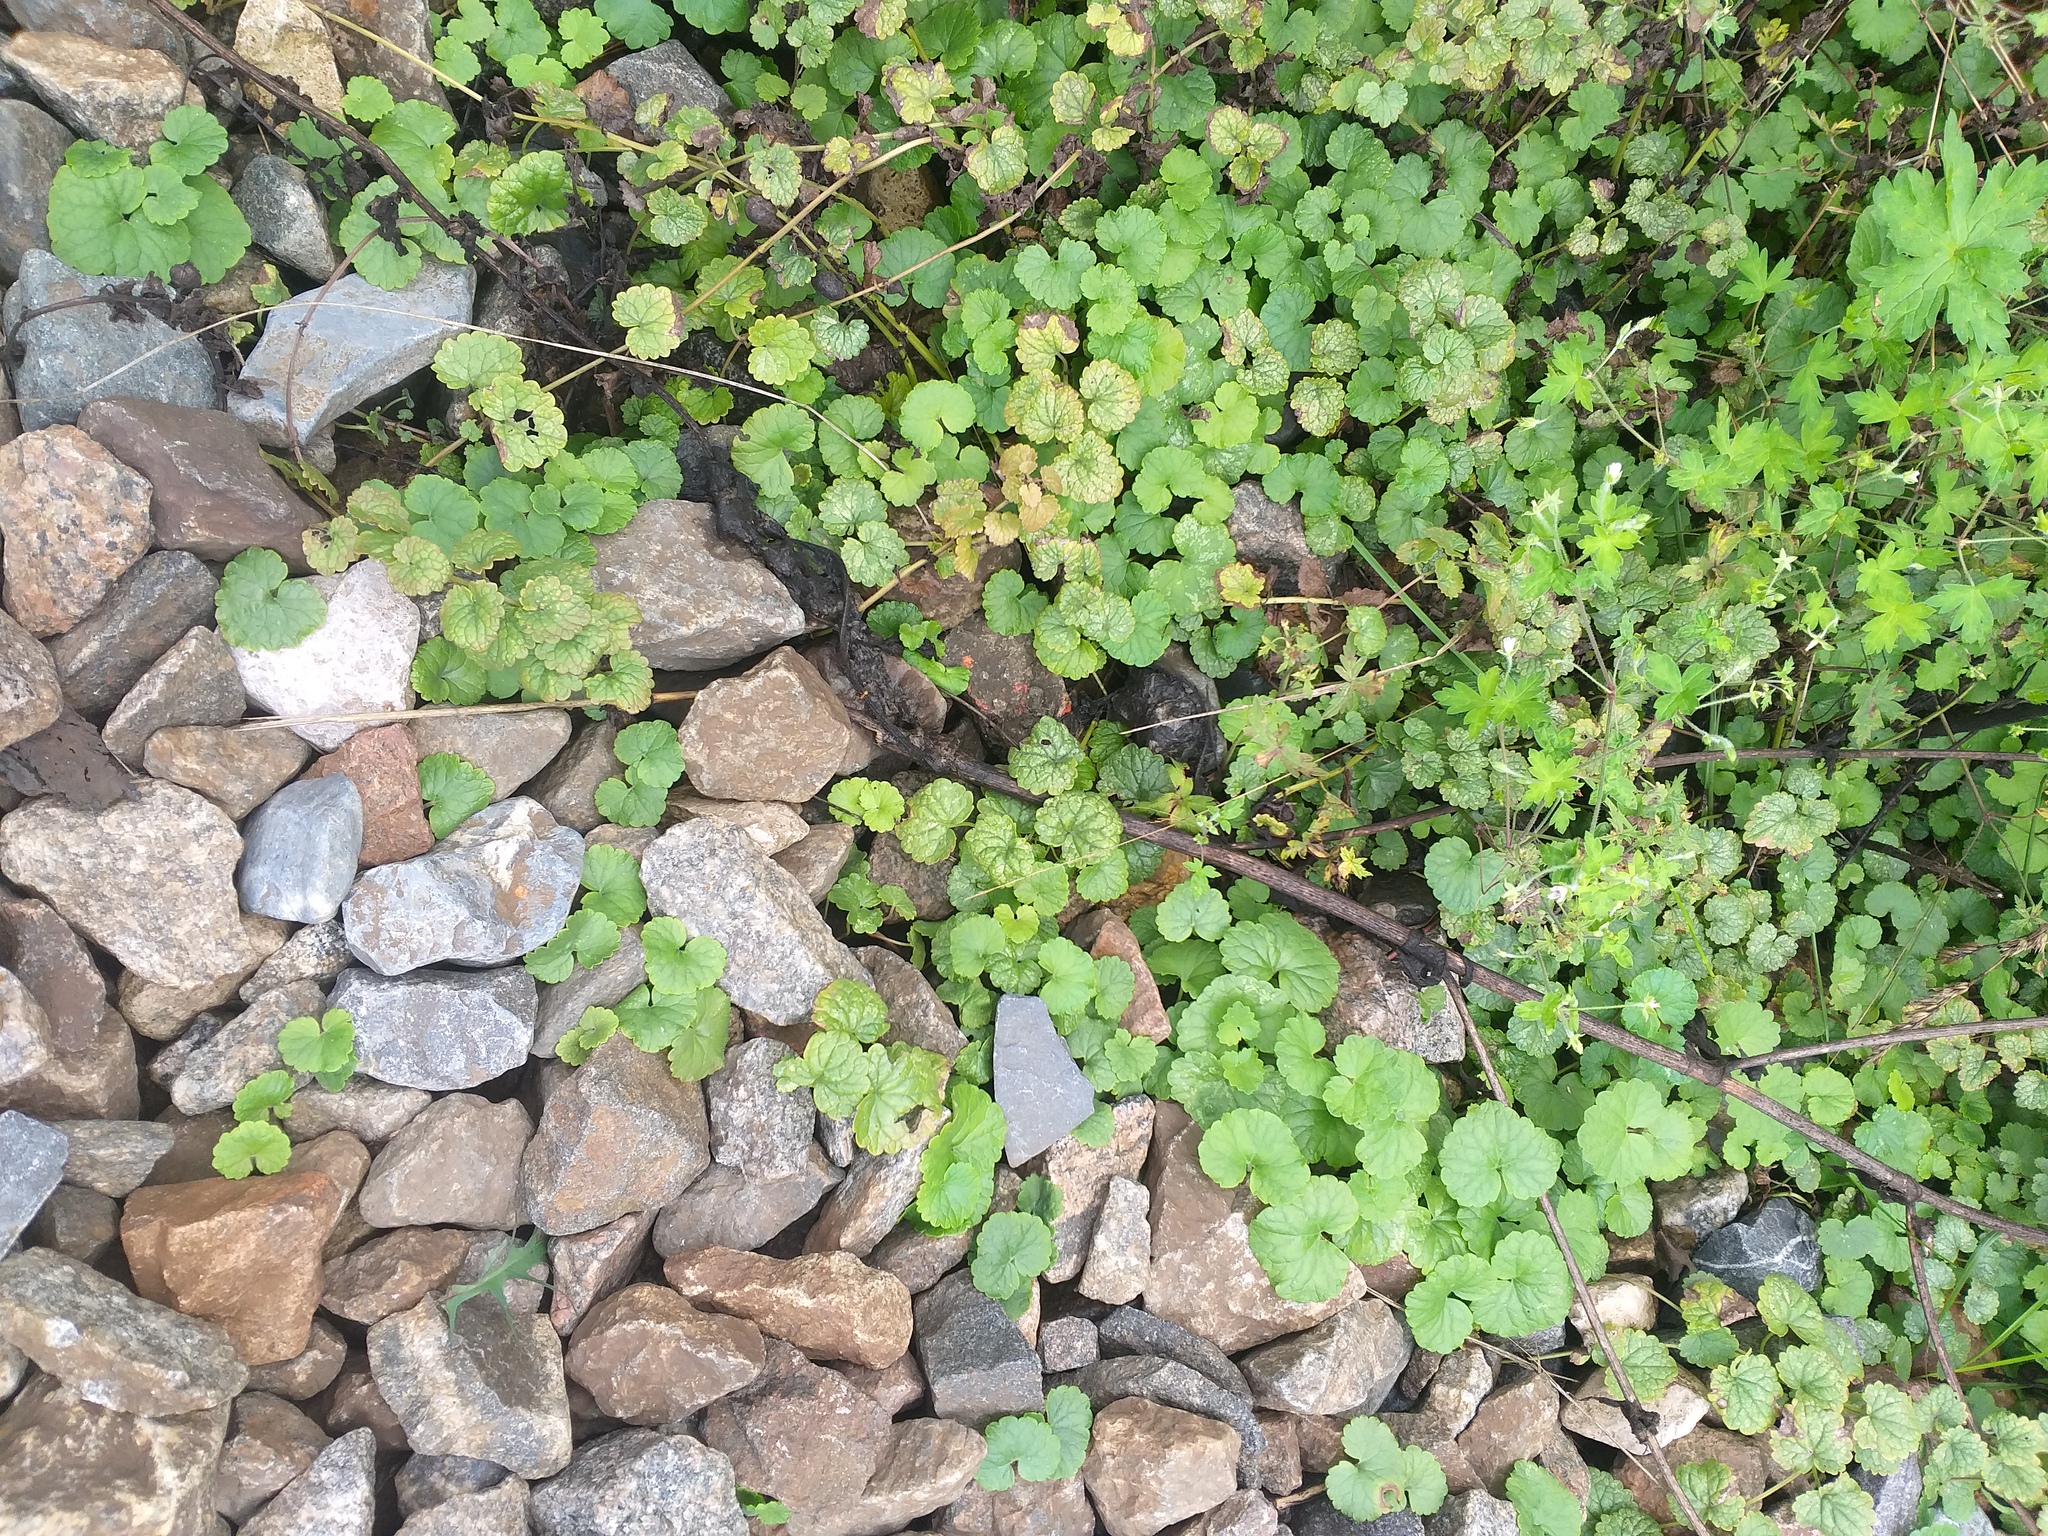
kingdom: Plantae
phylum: Tracheophyta
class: Magnoliopsida
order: Lamiales
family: Lamiaceae
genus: Glechoma
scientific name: Glechoma hederacea
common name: Ground ivy
